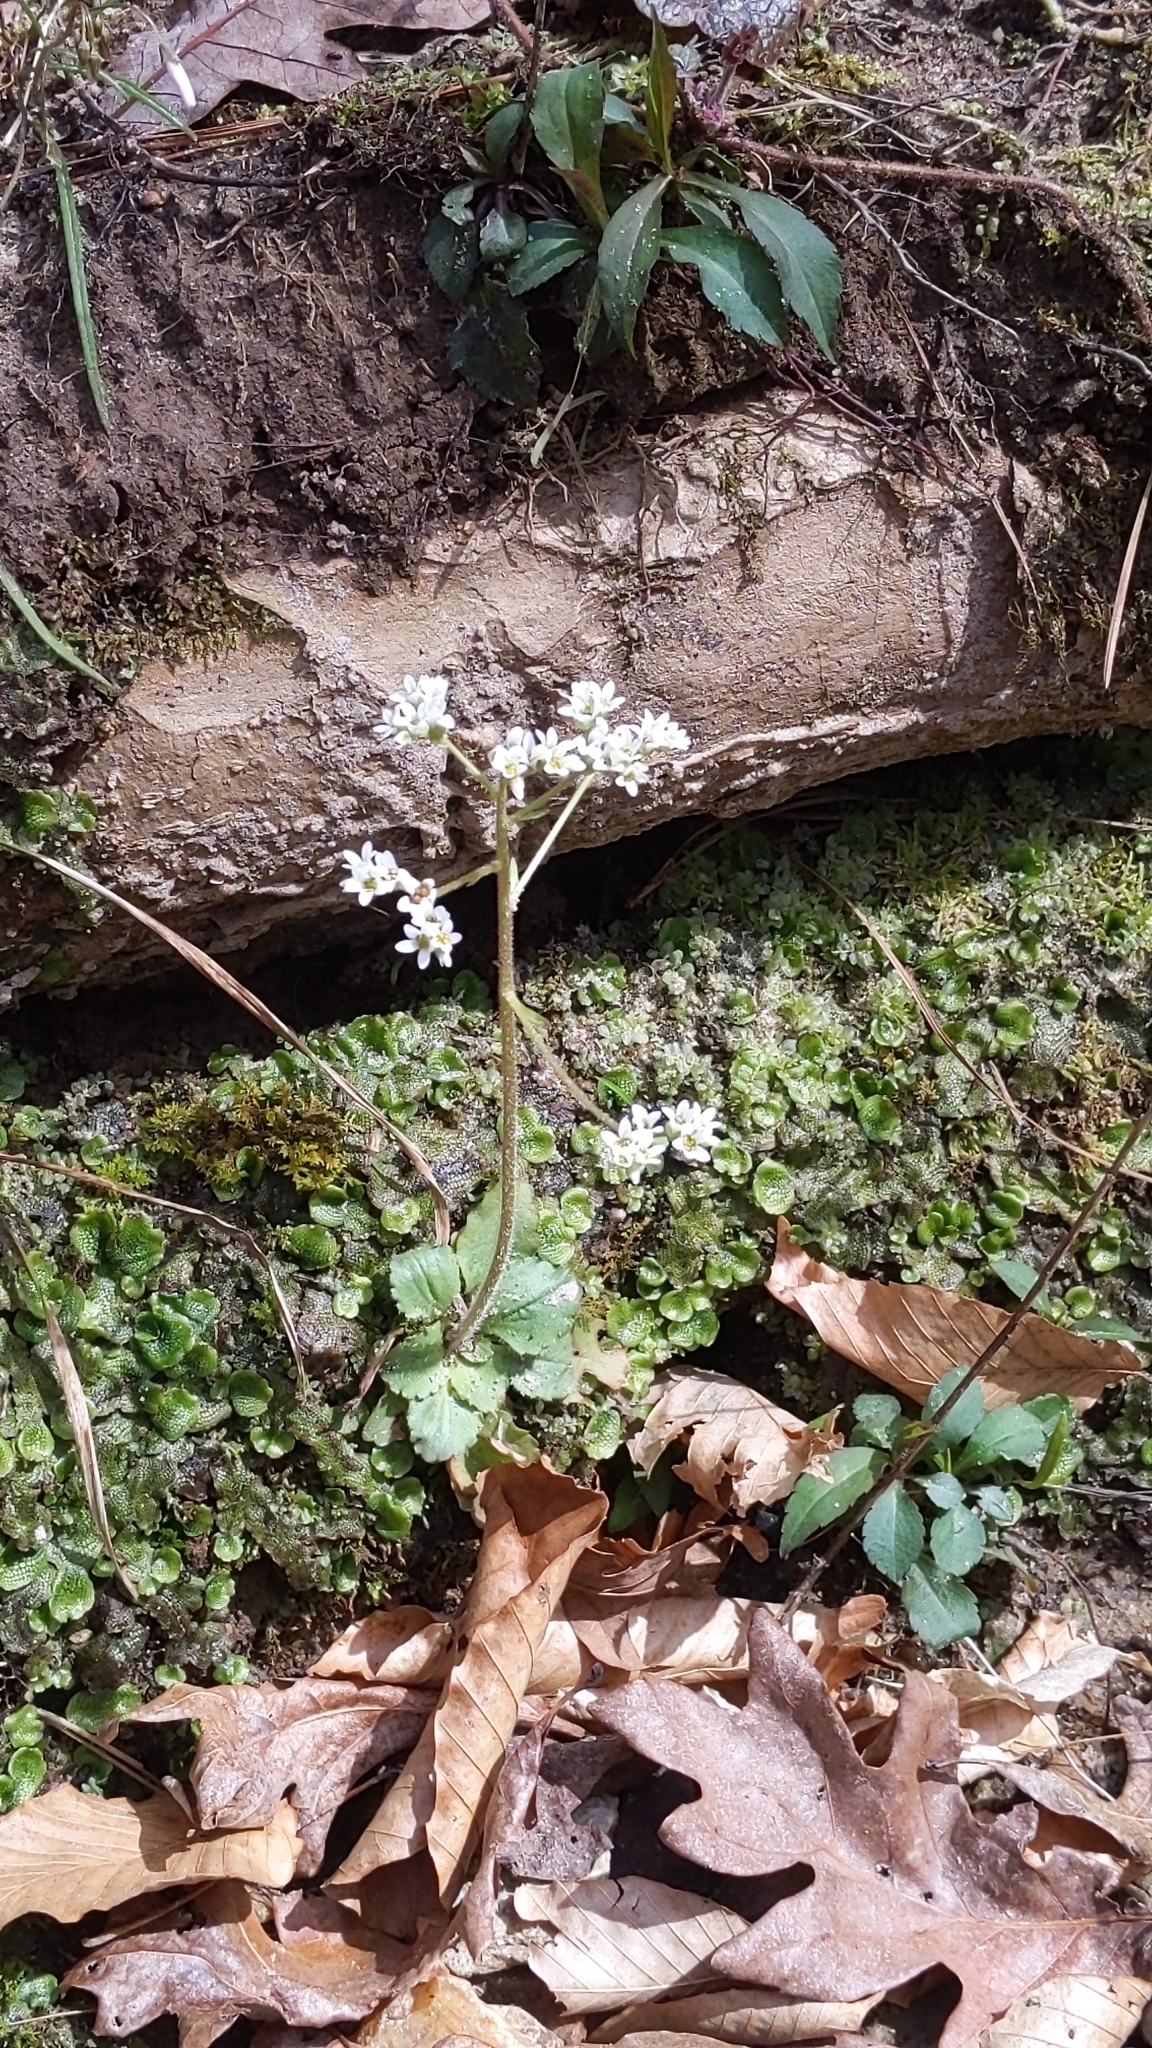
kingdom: Plantae
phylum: Tracheophyta
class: Magnoliopsida
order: Saxifragales
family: Saxifragaceae
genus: Micranthes
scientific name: Micranthes virginiensis
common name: Early saxifrage
